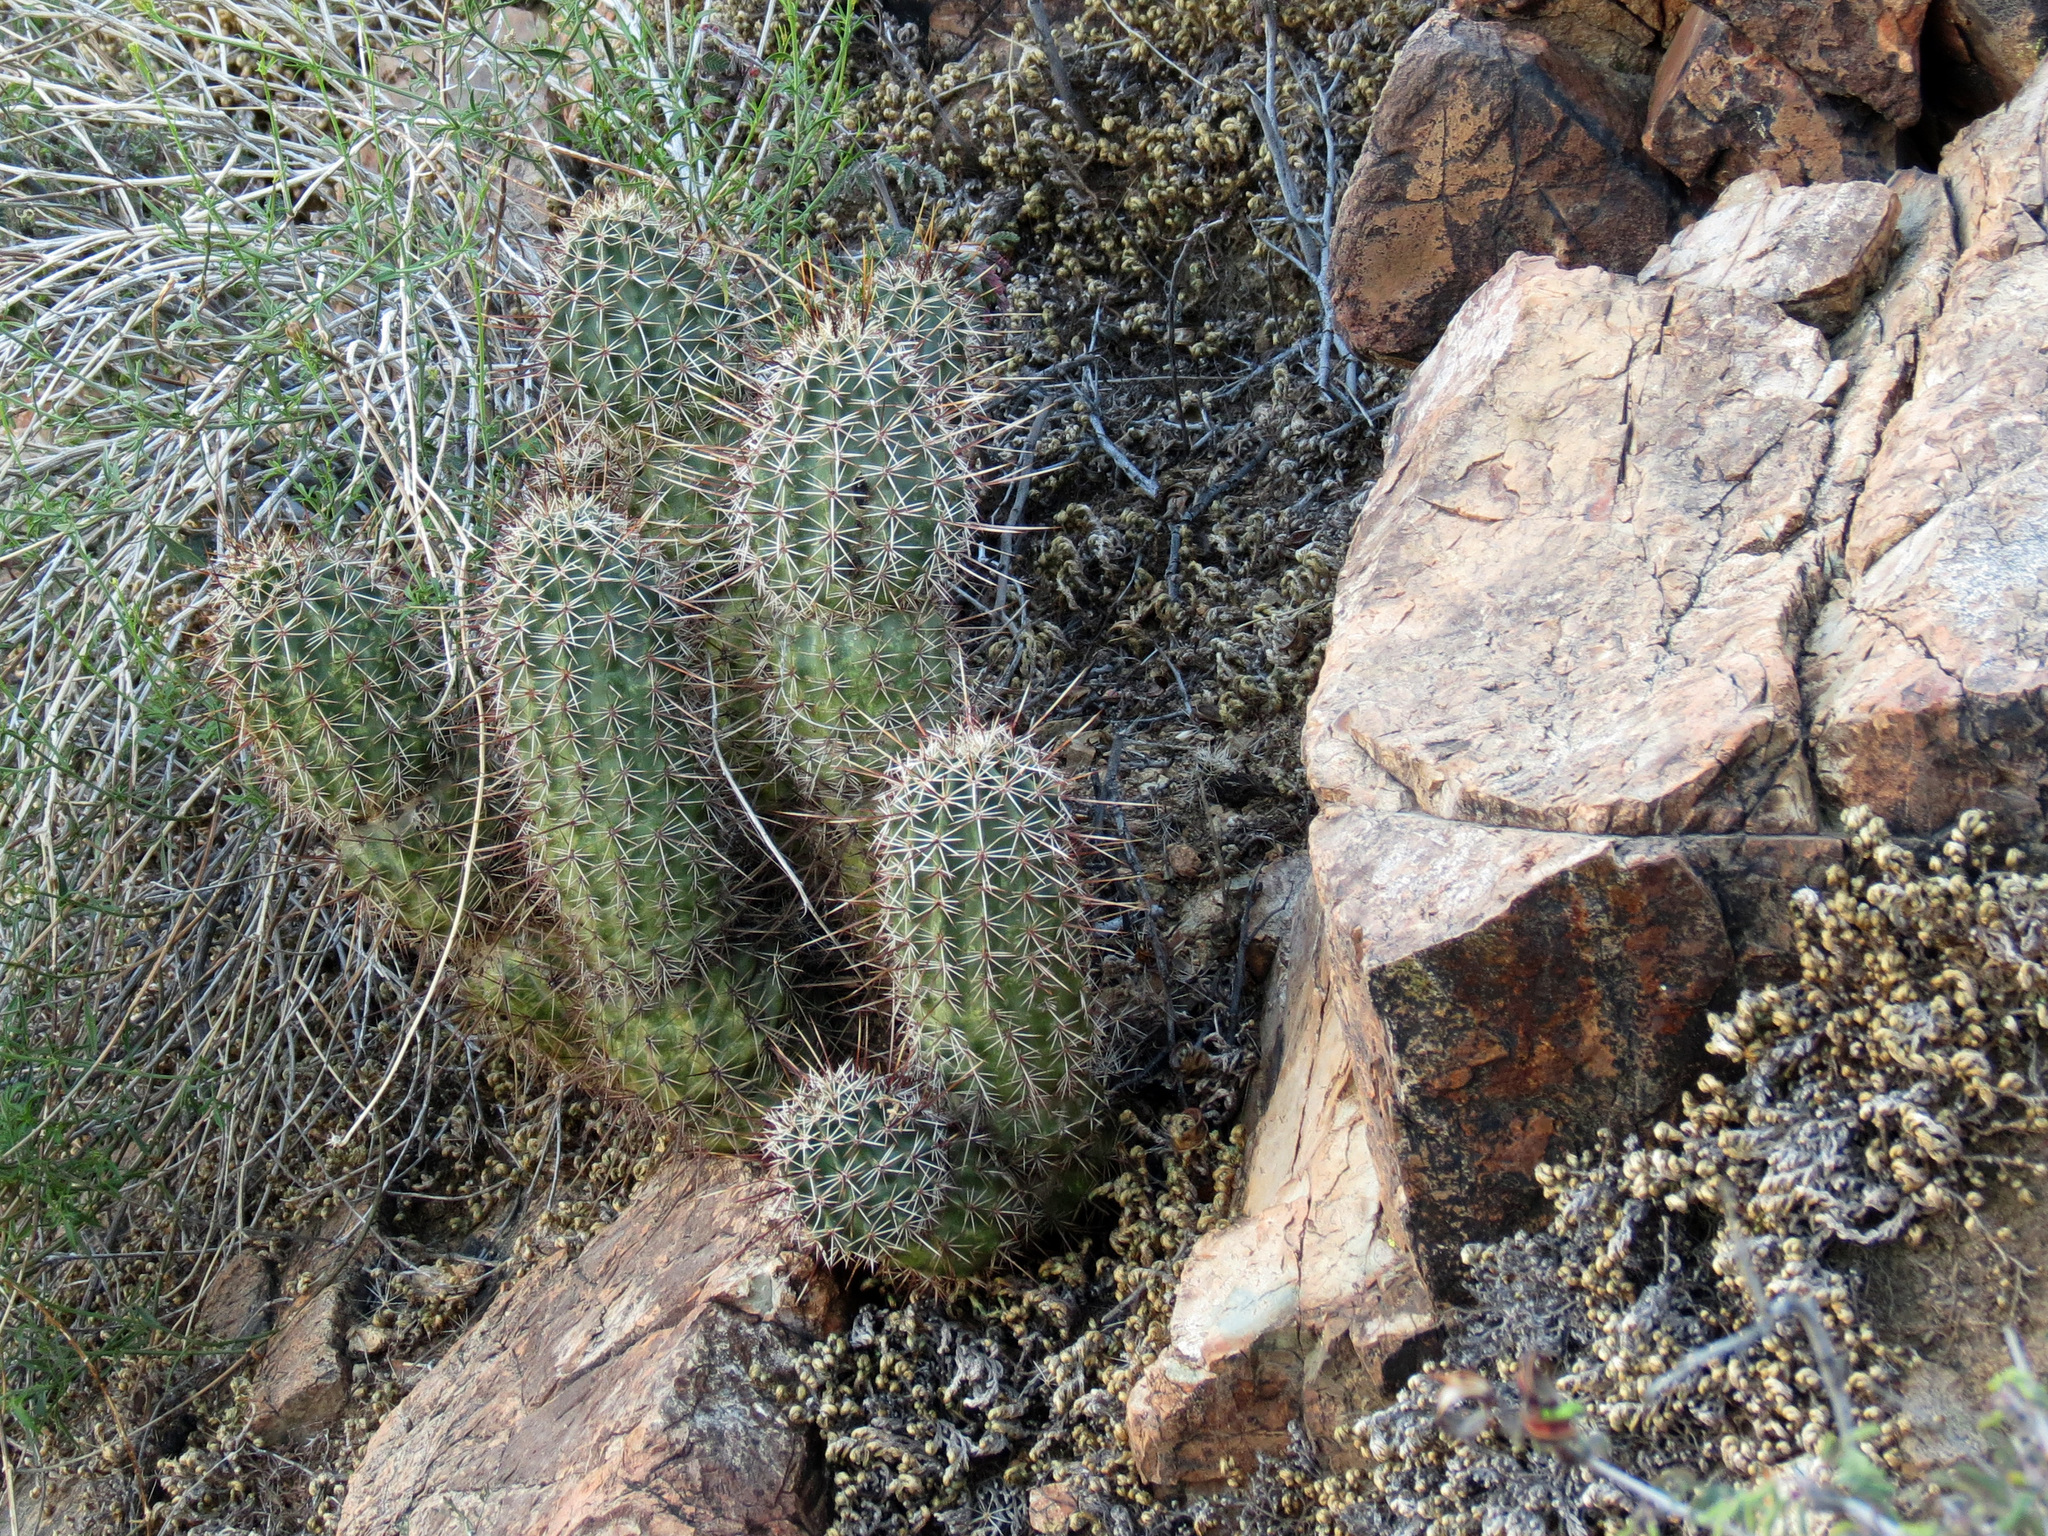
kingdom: Plantae
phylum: Tracheophyta
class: Magnoliopsida
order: Caryophyllales
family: Cactaceae
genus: Echinocereus
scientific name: Echinocereus fasciculatus
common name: Bundle hedgehog
